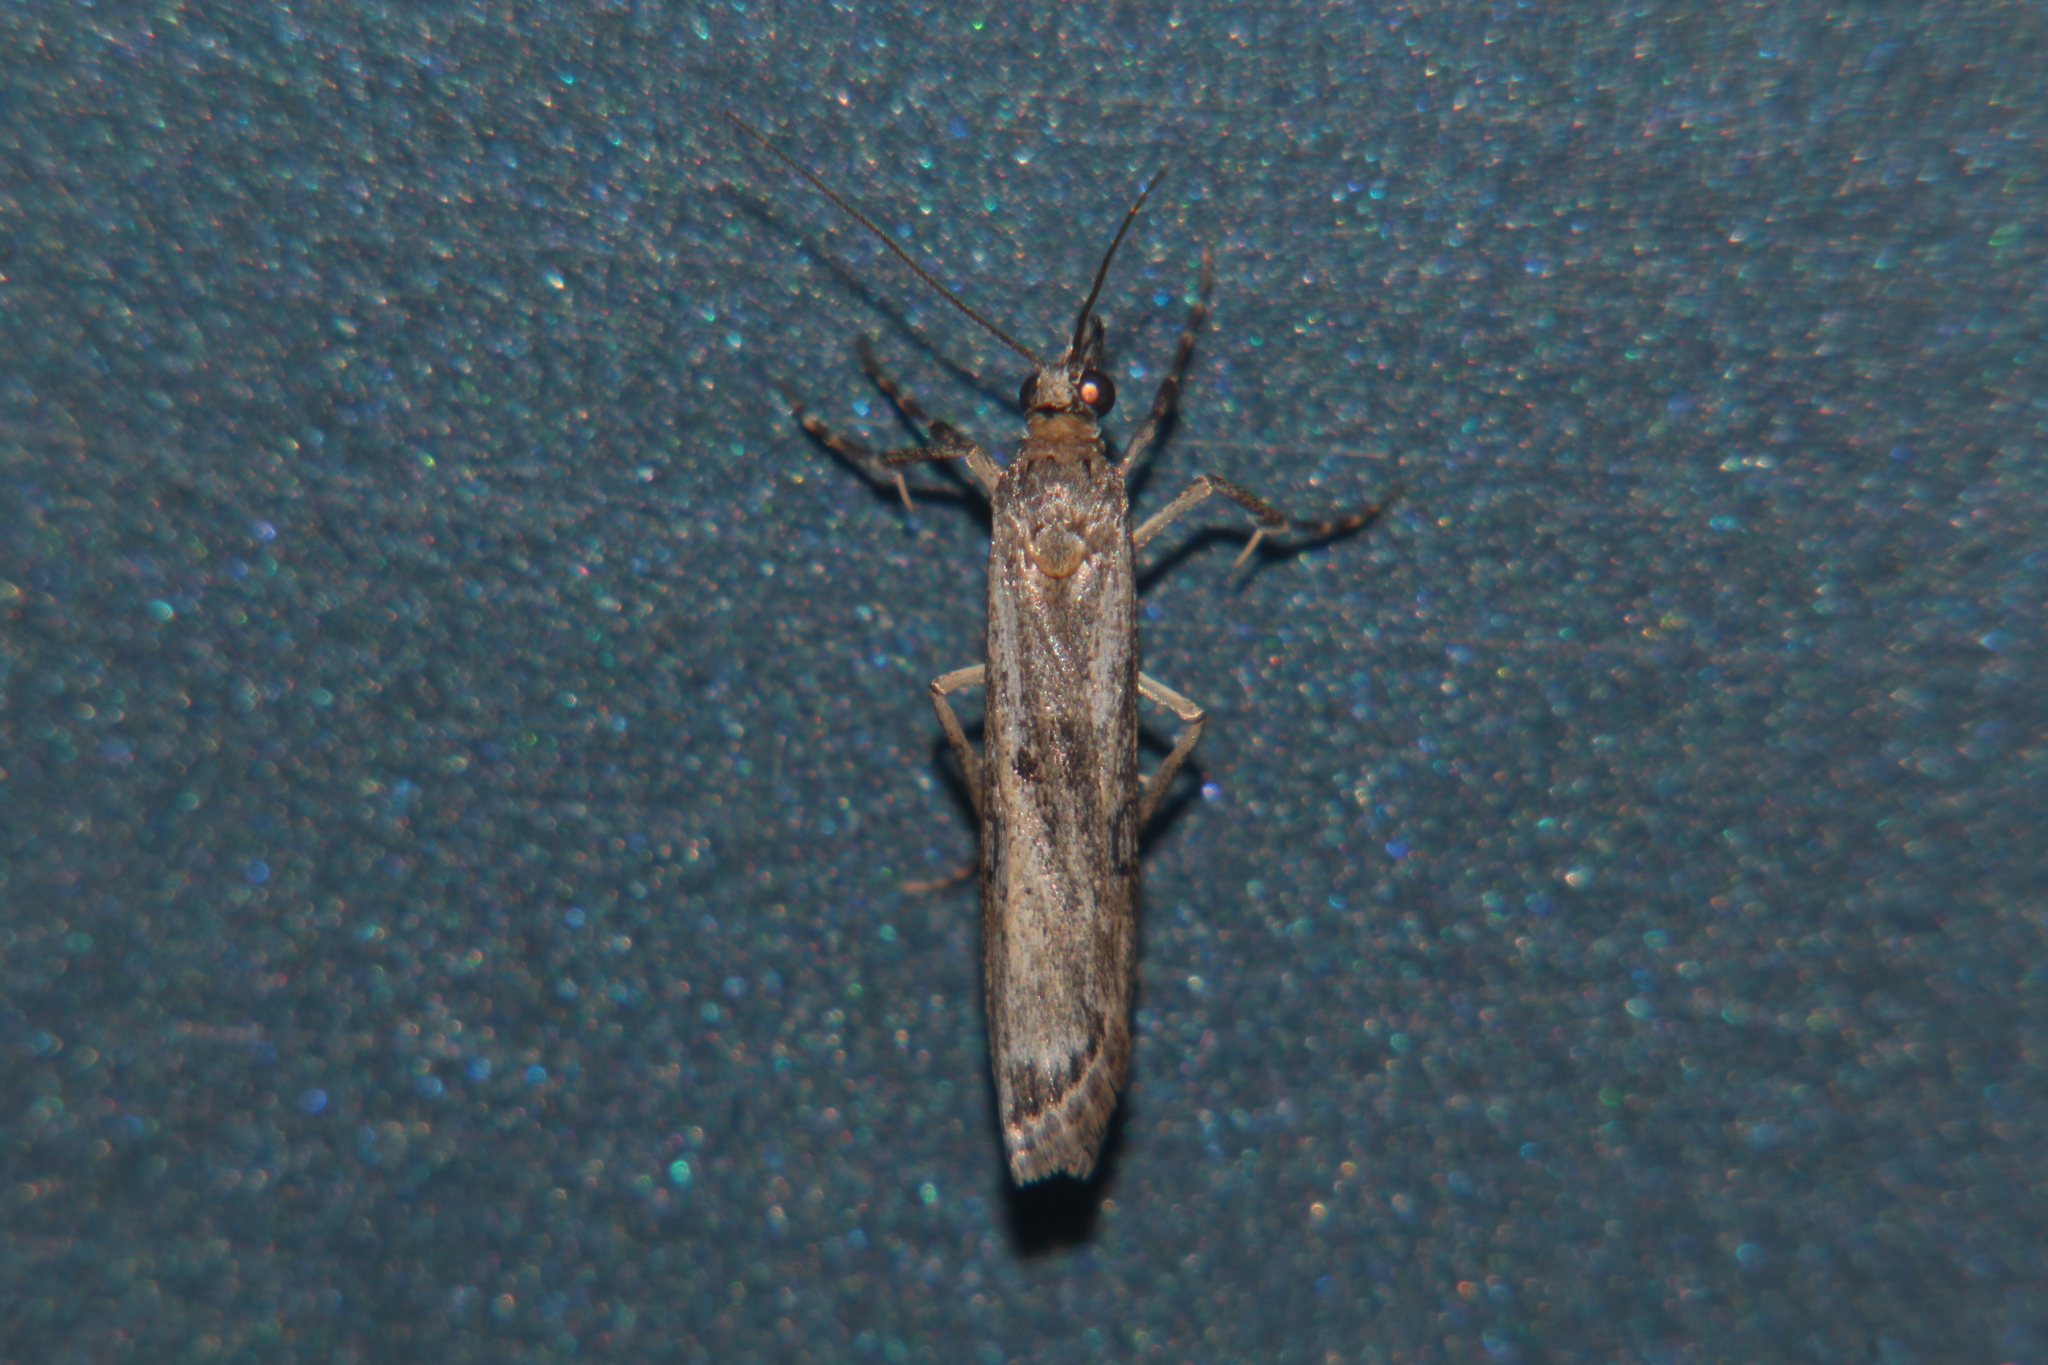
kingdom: Animalia
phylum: Arthropoda
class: Insecta
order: Lepidoptera
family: Crambidae
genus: Eudonia
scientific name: Eudonia leptalea
